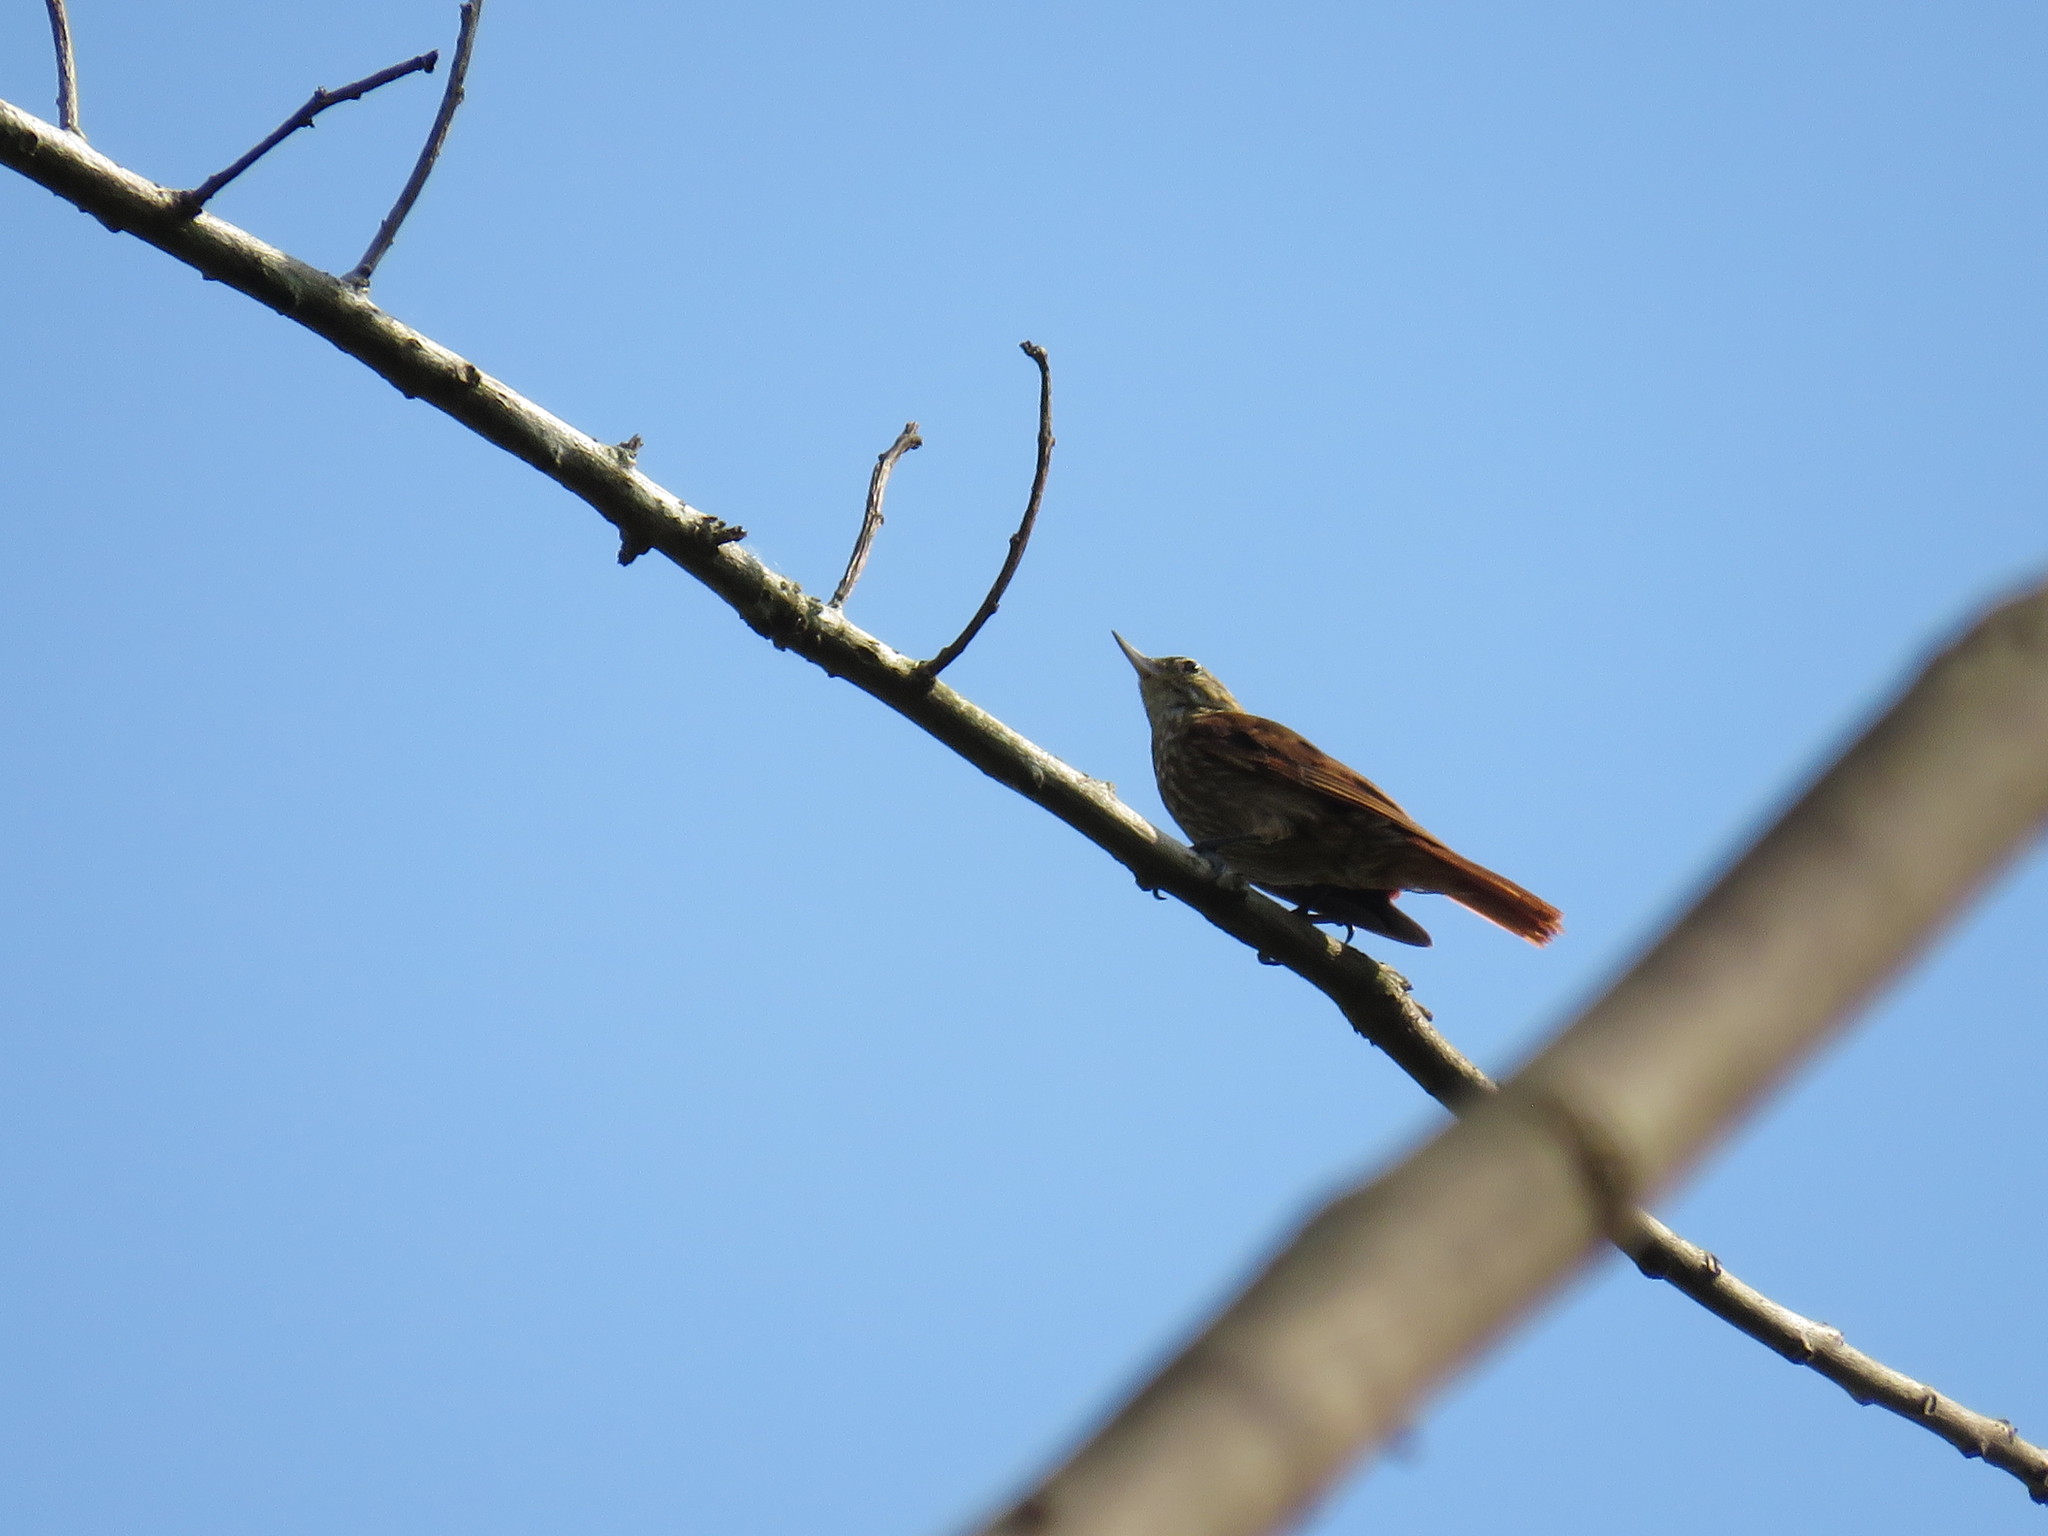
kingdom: Animalia
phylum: Chordata
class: Aves
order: Passeriformes
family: Furnariidae
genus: Xenops
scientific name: Xenops tenuirostris
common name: Slender-billed xenops
